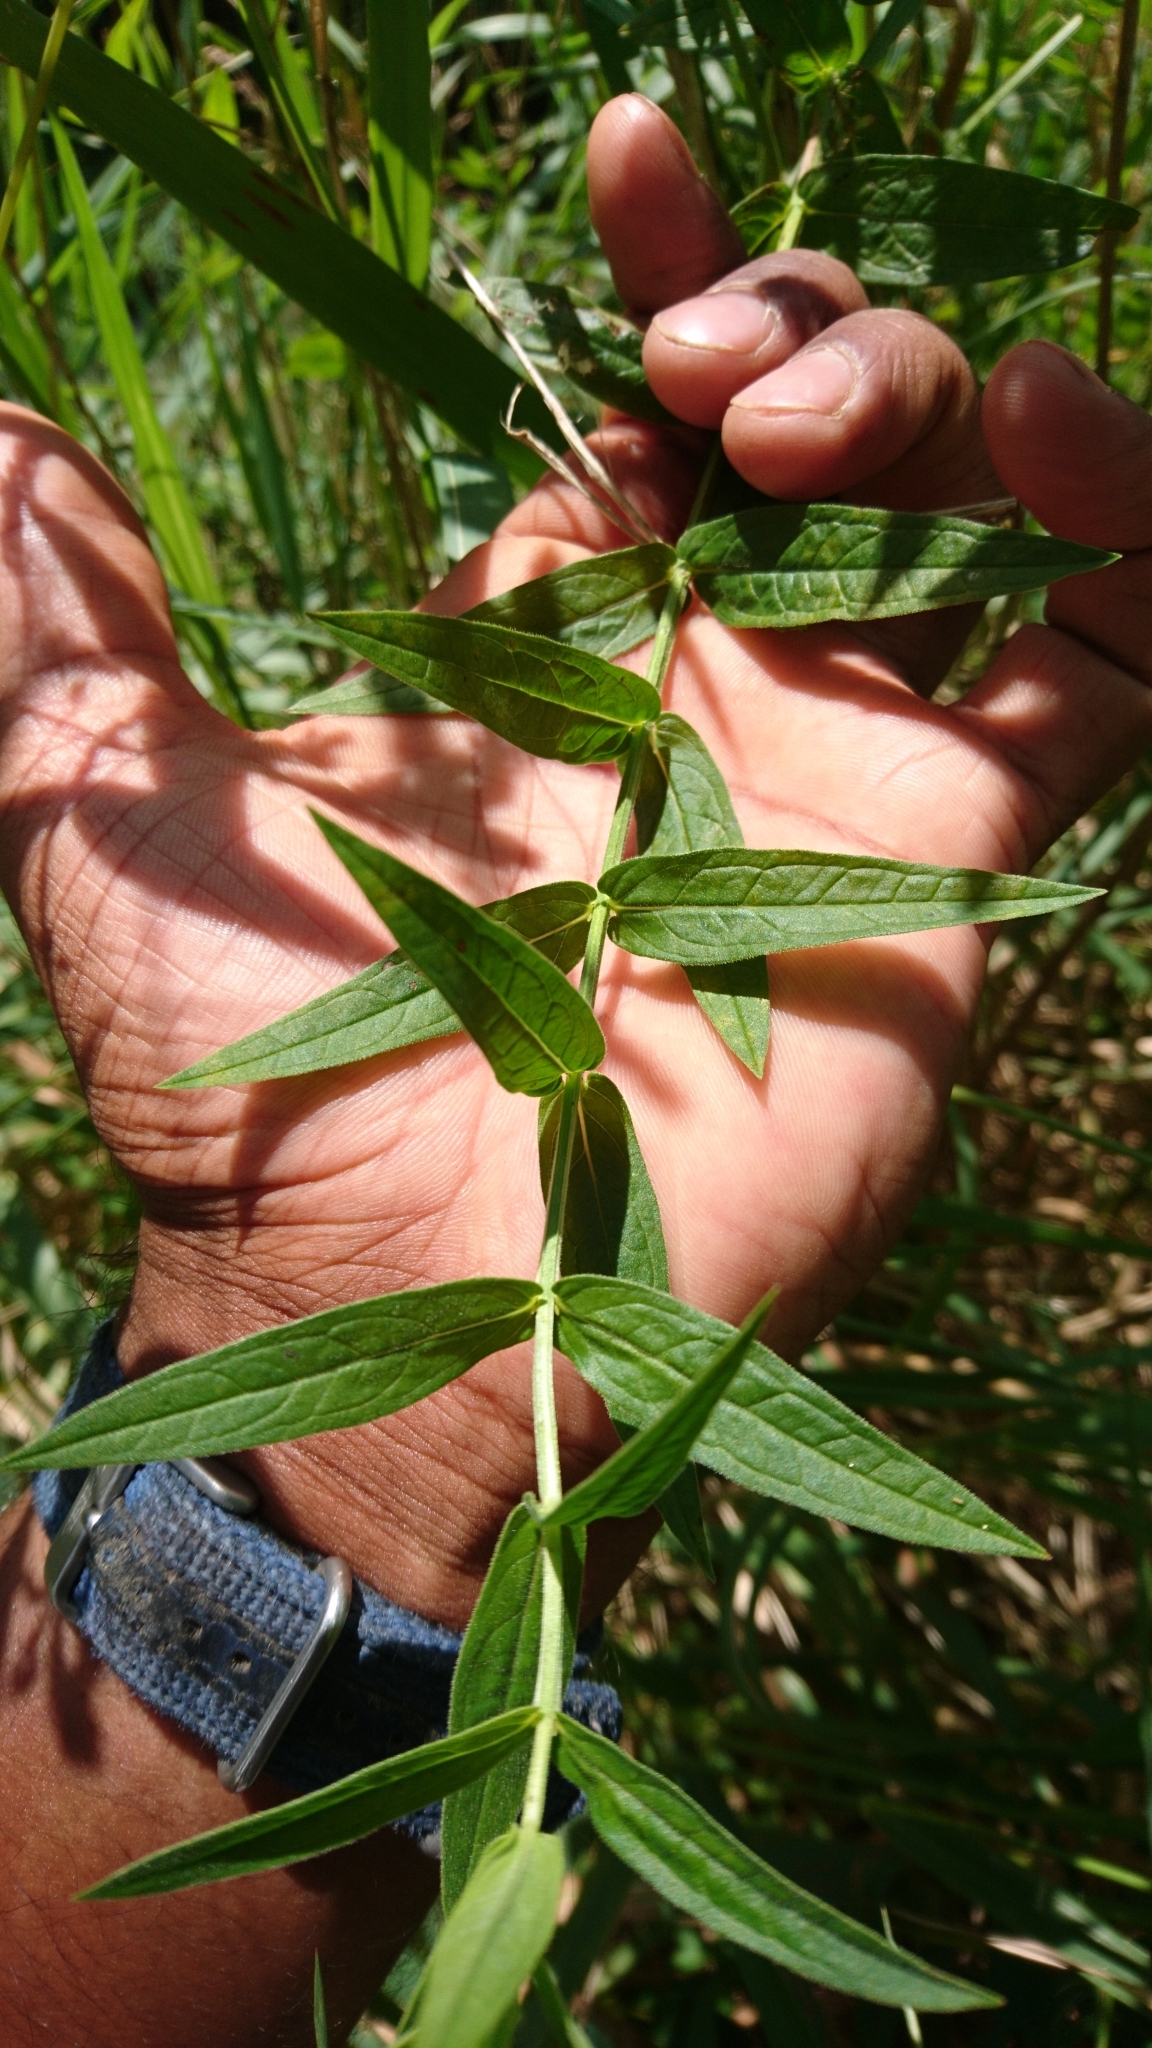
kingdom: Plantae
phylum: Tracheophyta
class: Magnoliopsida
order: Myrtales
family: Lythraceae
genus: Lythrum
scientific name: Lythrum salicaria
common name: Purple loosestrife
